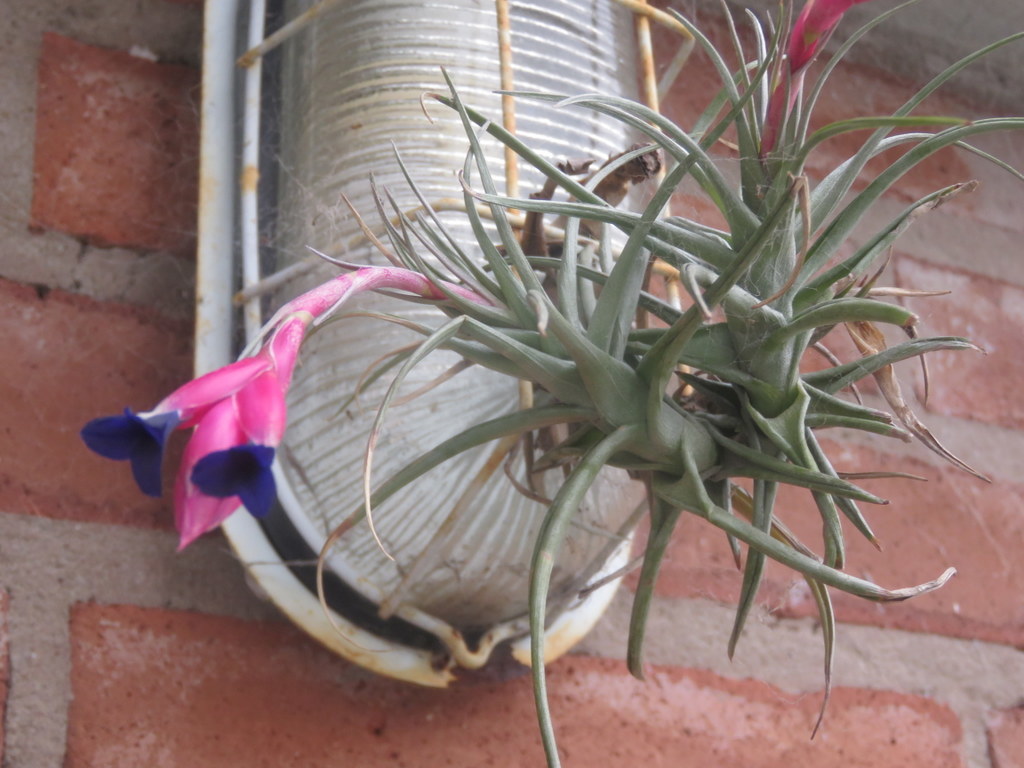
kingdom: Plantae
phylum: Tracheophyta
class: Liliopsida
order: Poales
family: Bromeliaceae
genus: Tillandsia
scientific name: Tillandsia aeranthos
